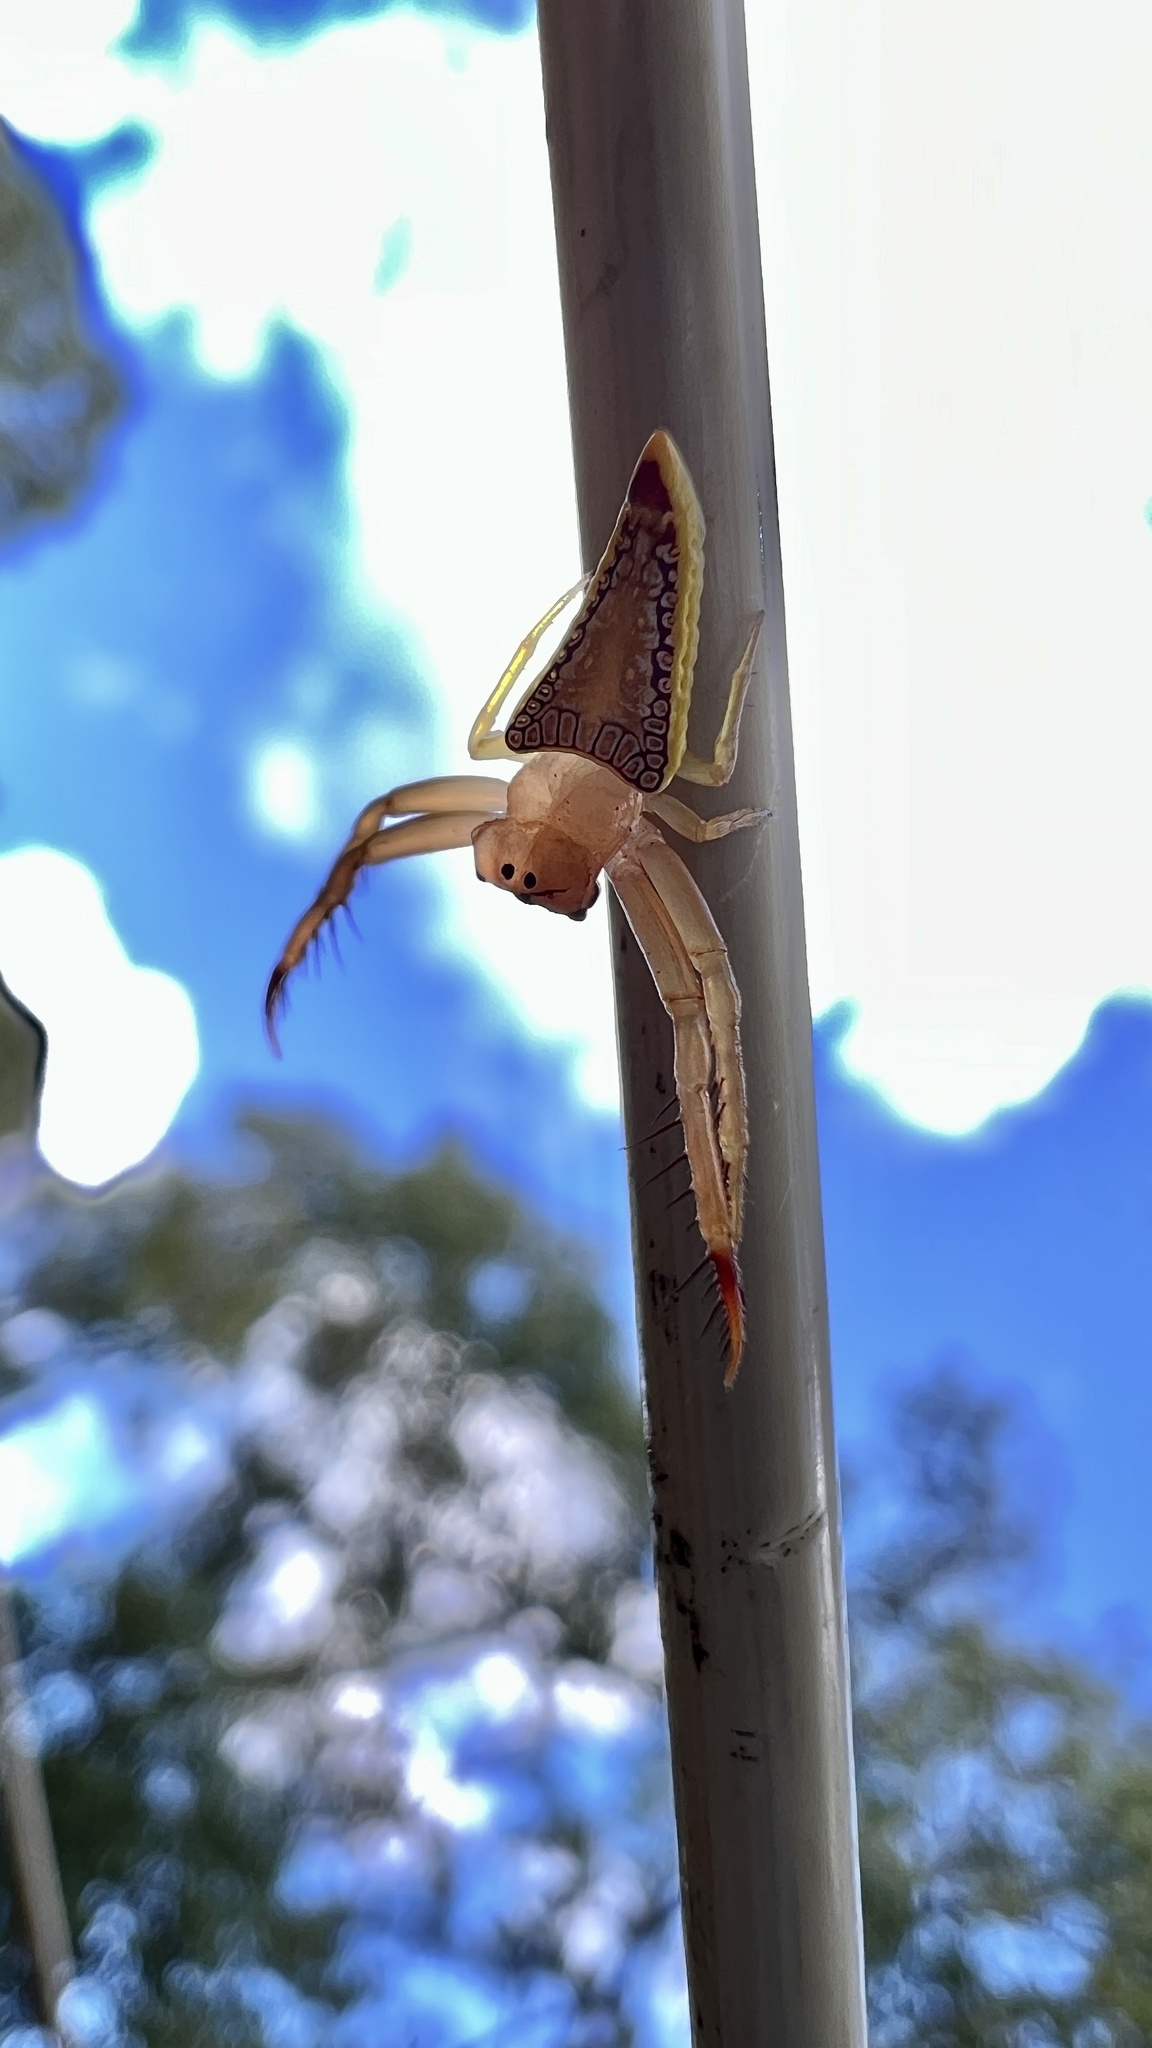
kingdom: Animalia
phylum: Arthropoda
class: Arachnida
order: Araneae
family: Arkyidae
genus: Arkys
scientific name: Arkys walckenaeri
